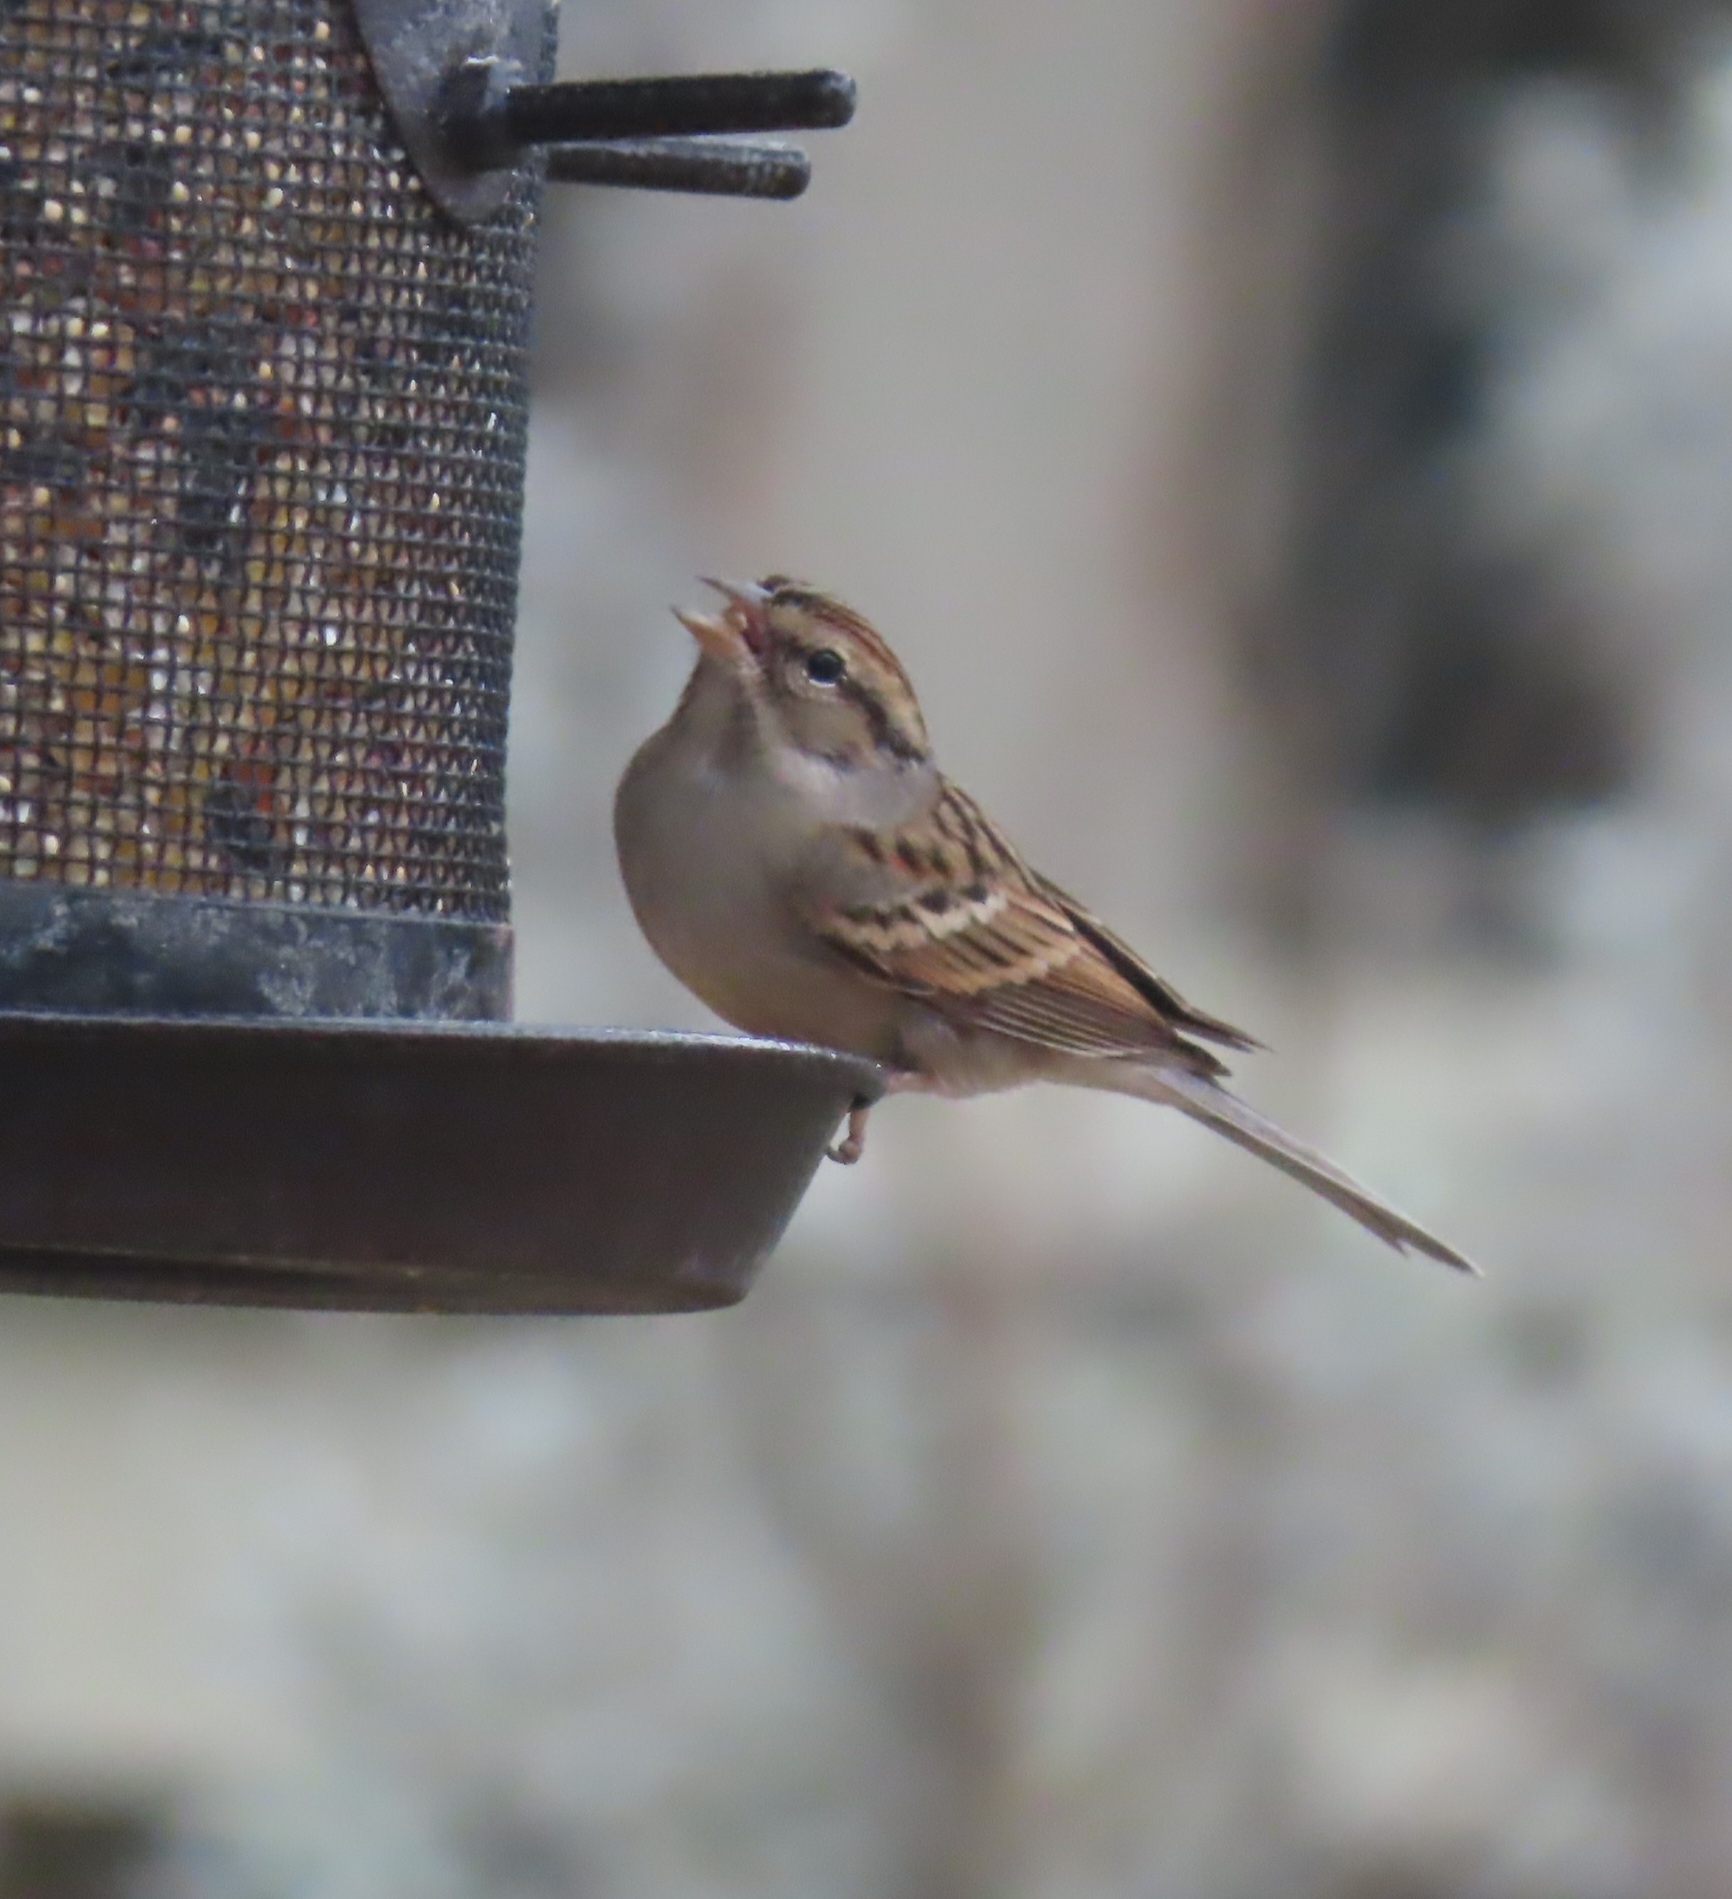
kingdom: Animalia
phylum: Chordata
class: Aves
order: Passeriformes
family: Passerellidae
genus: Spizella
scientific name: Spizella passerina
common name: Chipping sparrow
